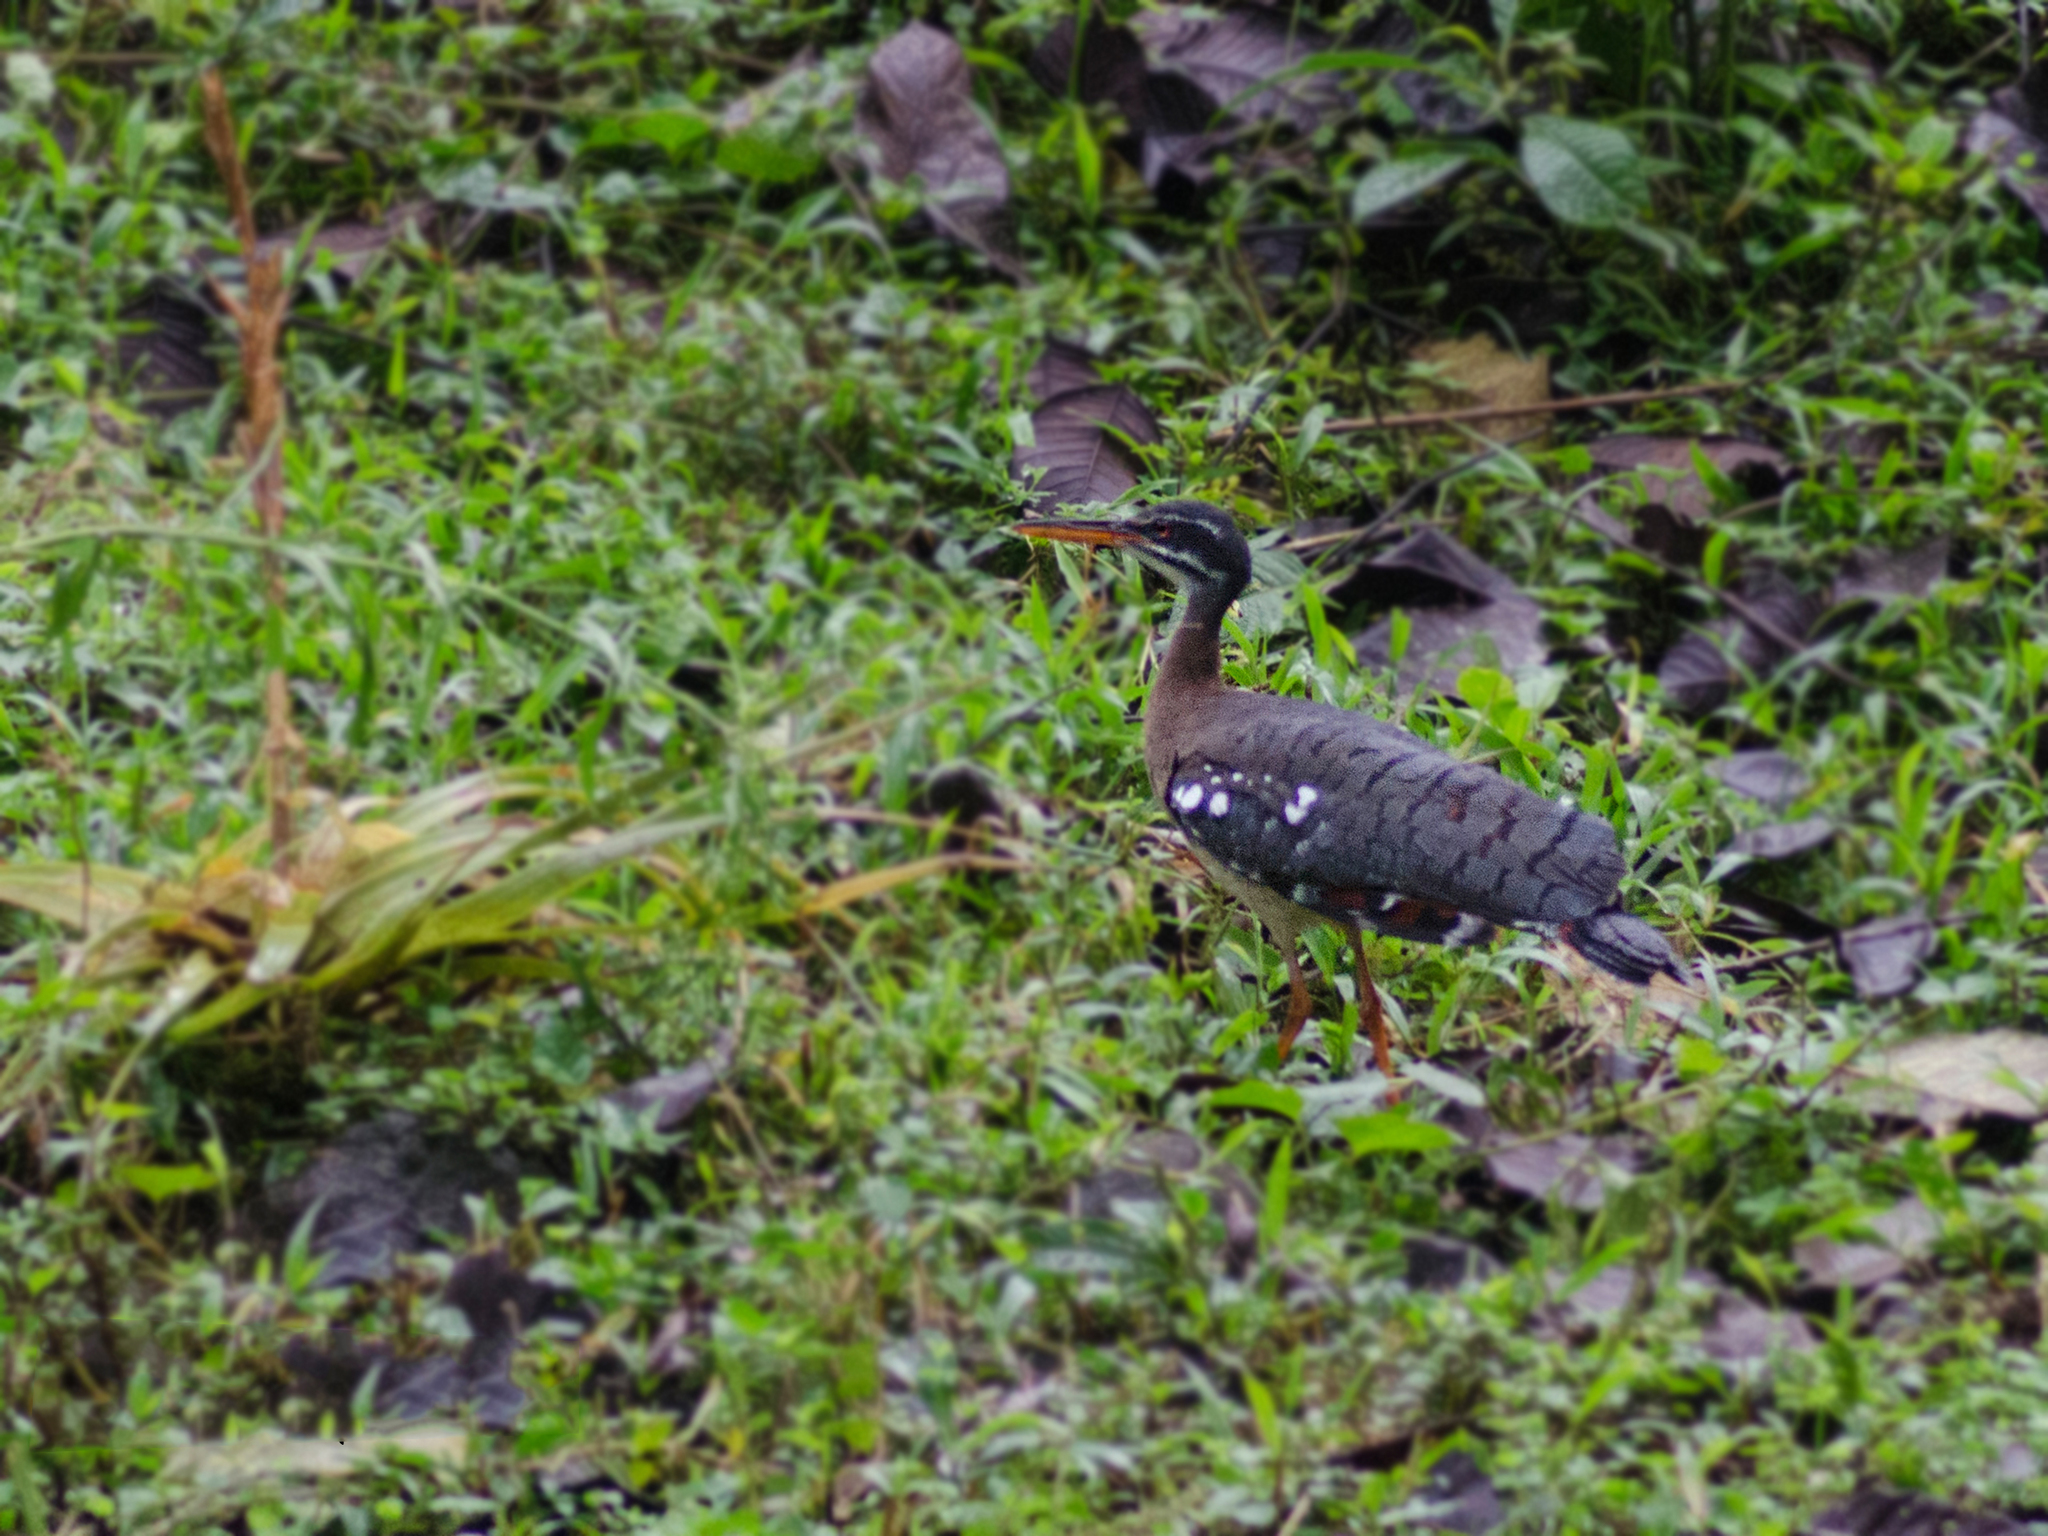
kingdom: Animalia
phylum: Chordata
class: Aves
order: Eurypygiformes
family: Eurypygidae
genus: Eurypyga
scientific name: Eurypyga helias
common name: Sunbittern
